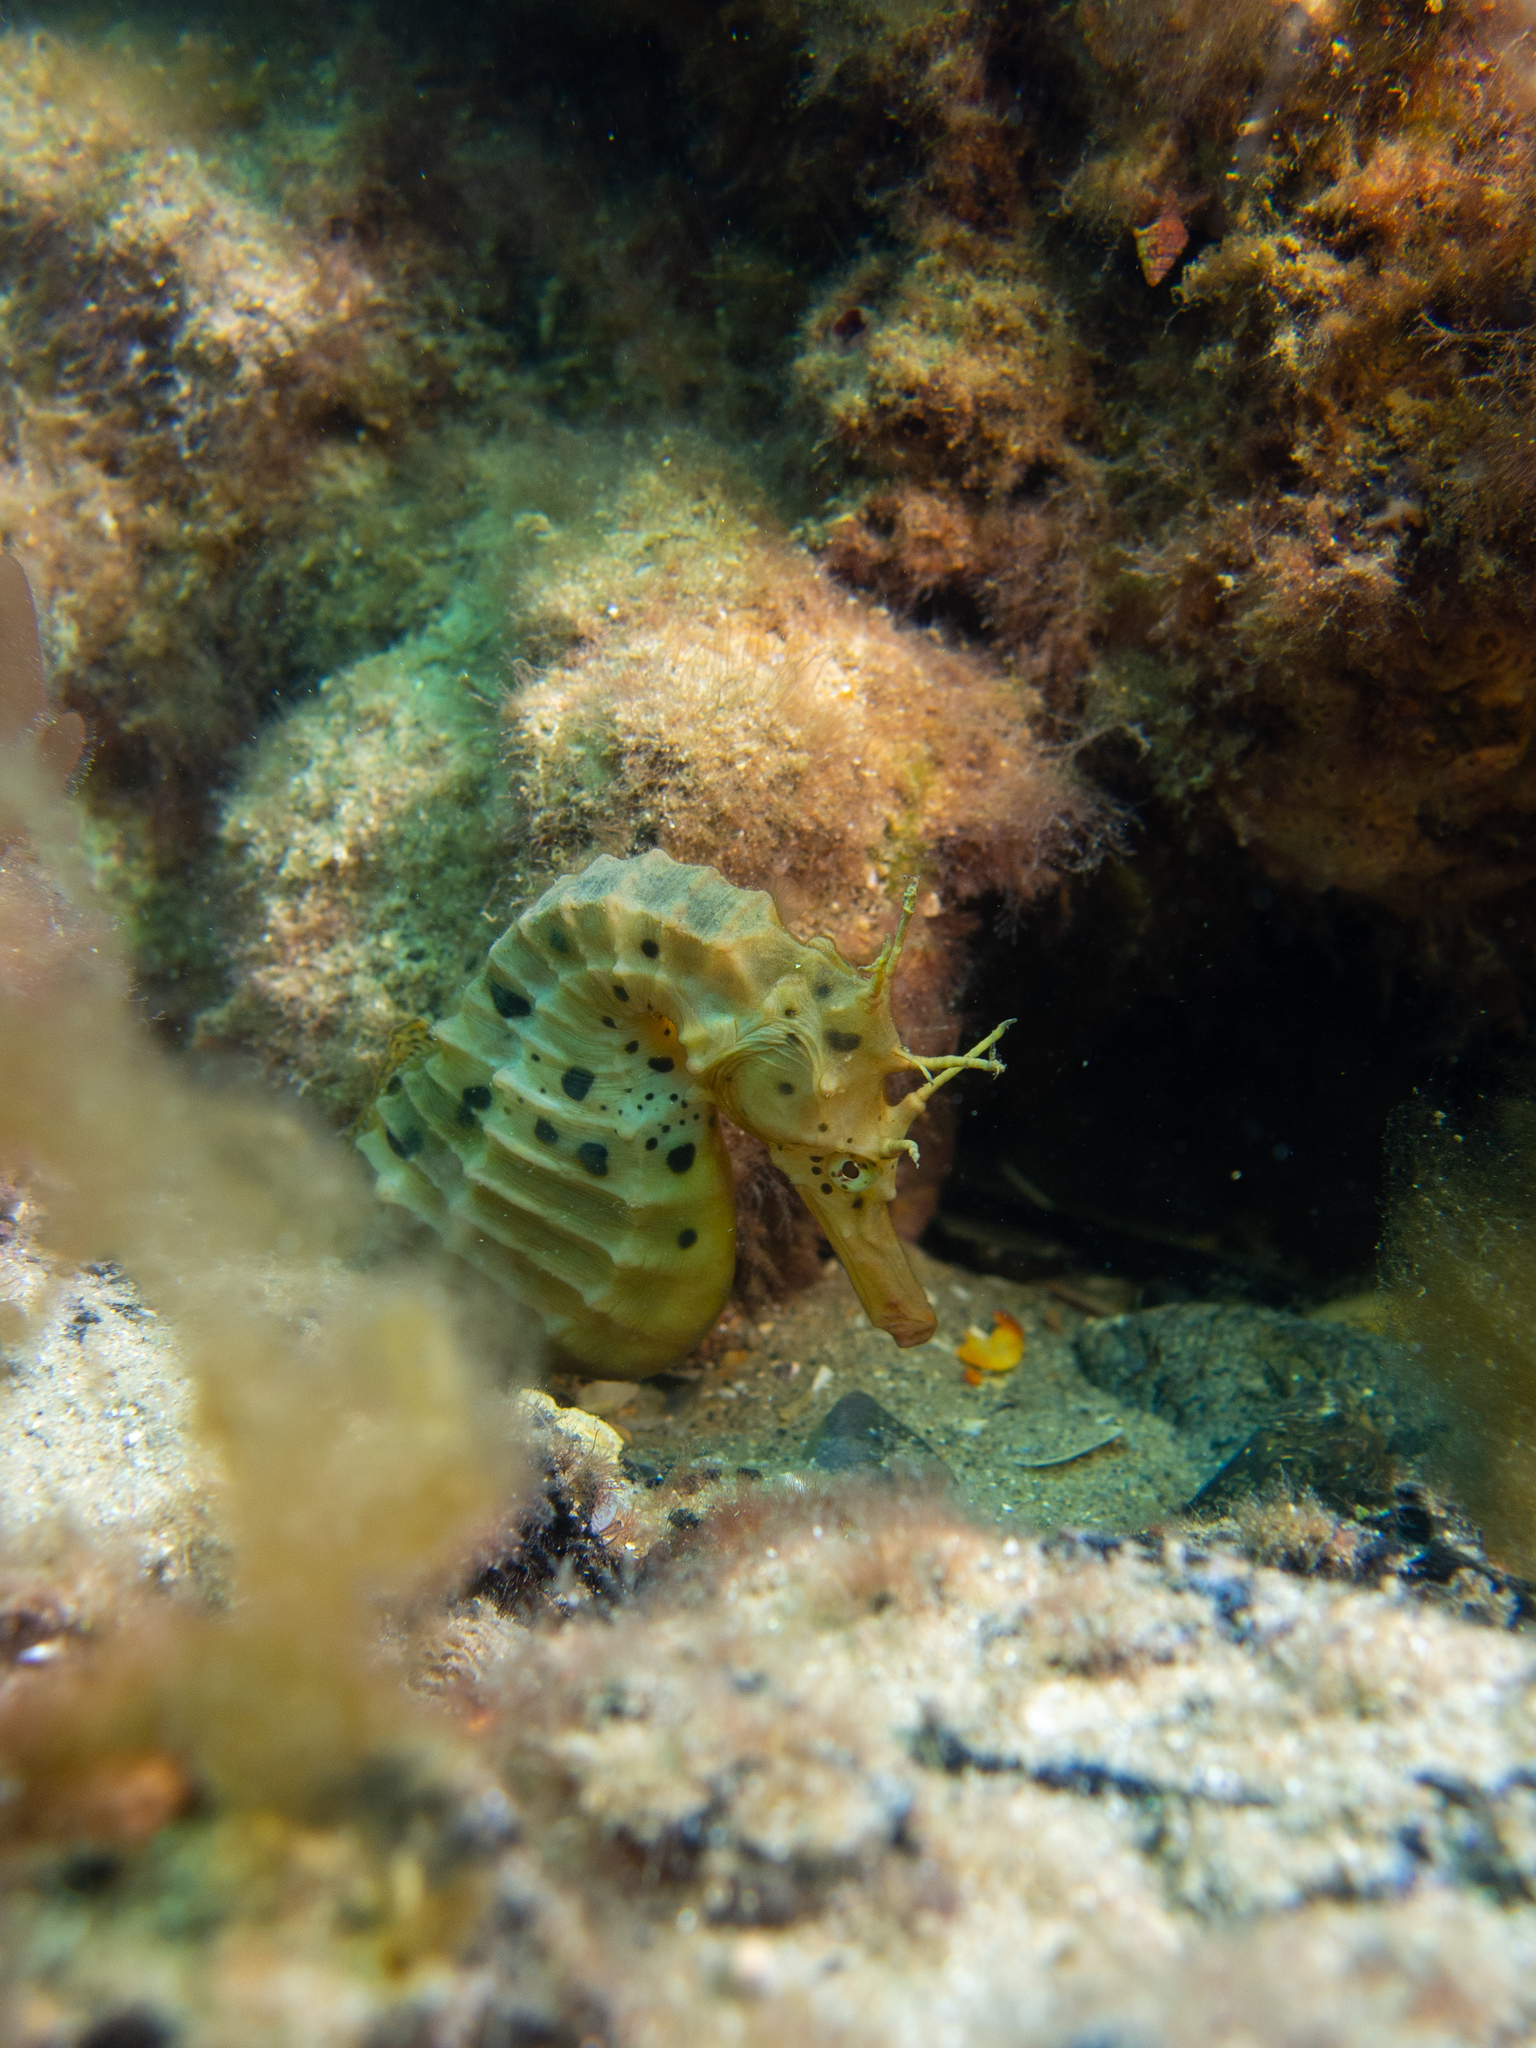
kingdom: Animalia
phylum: Chordata
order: Syngnathiformes
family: Syngnathidae
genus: Hippocampus
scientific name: Hippocampus abdominalis
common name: Big-belly seahorse
